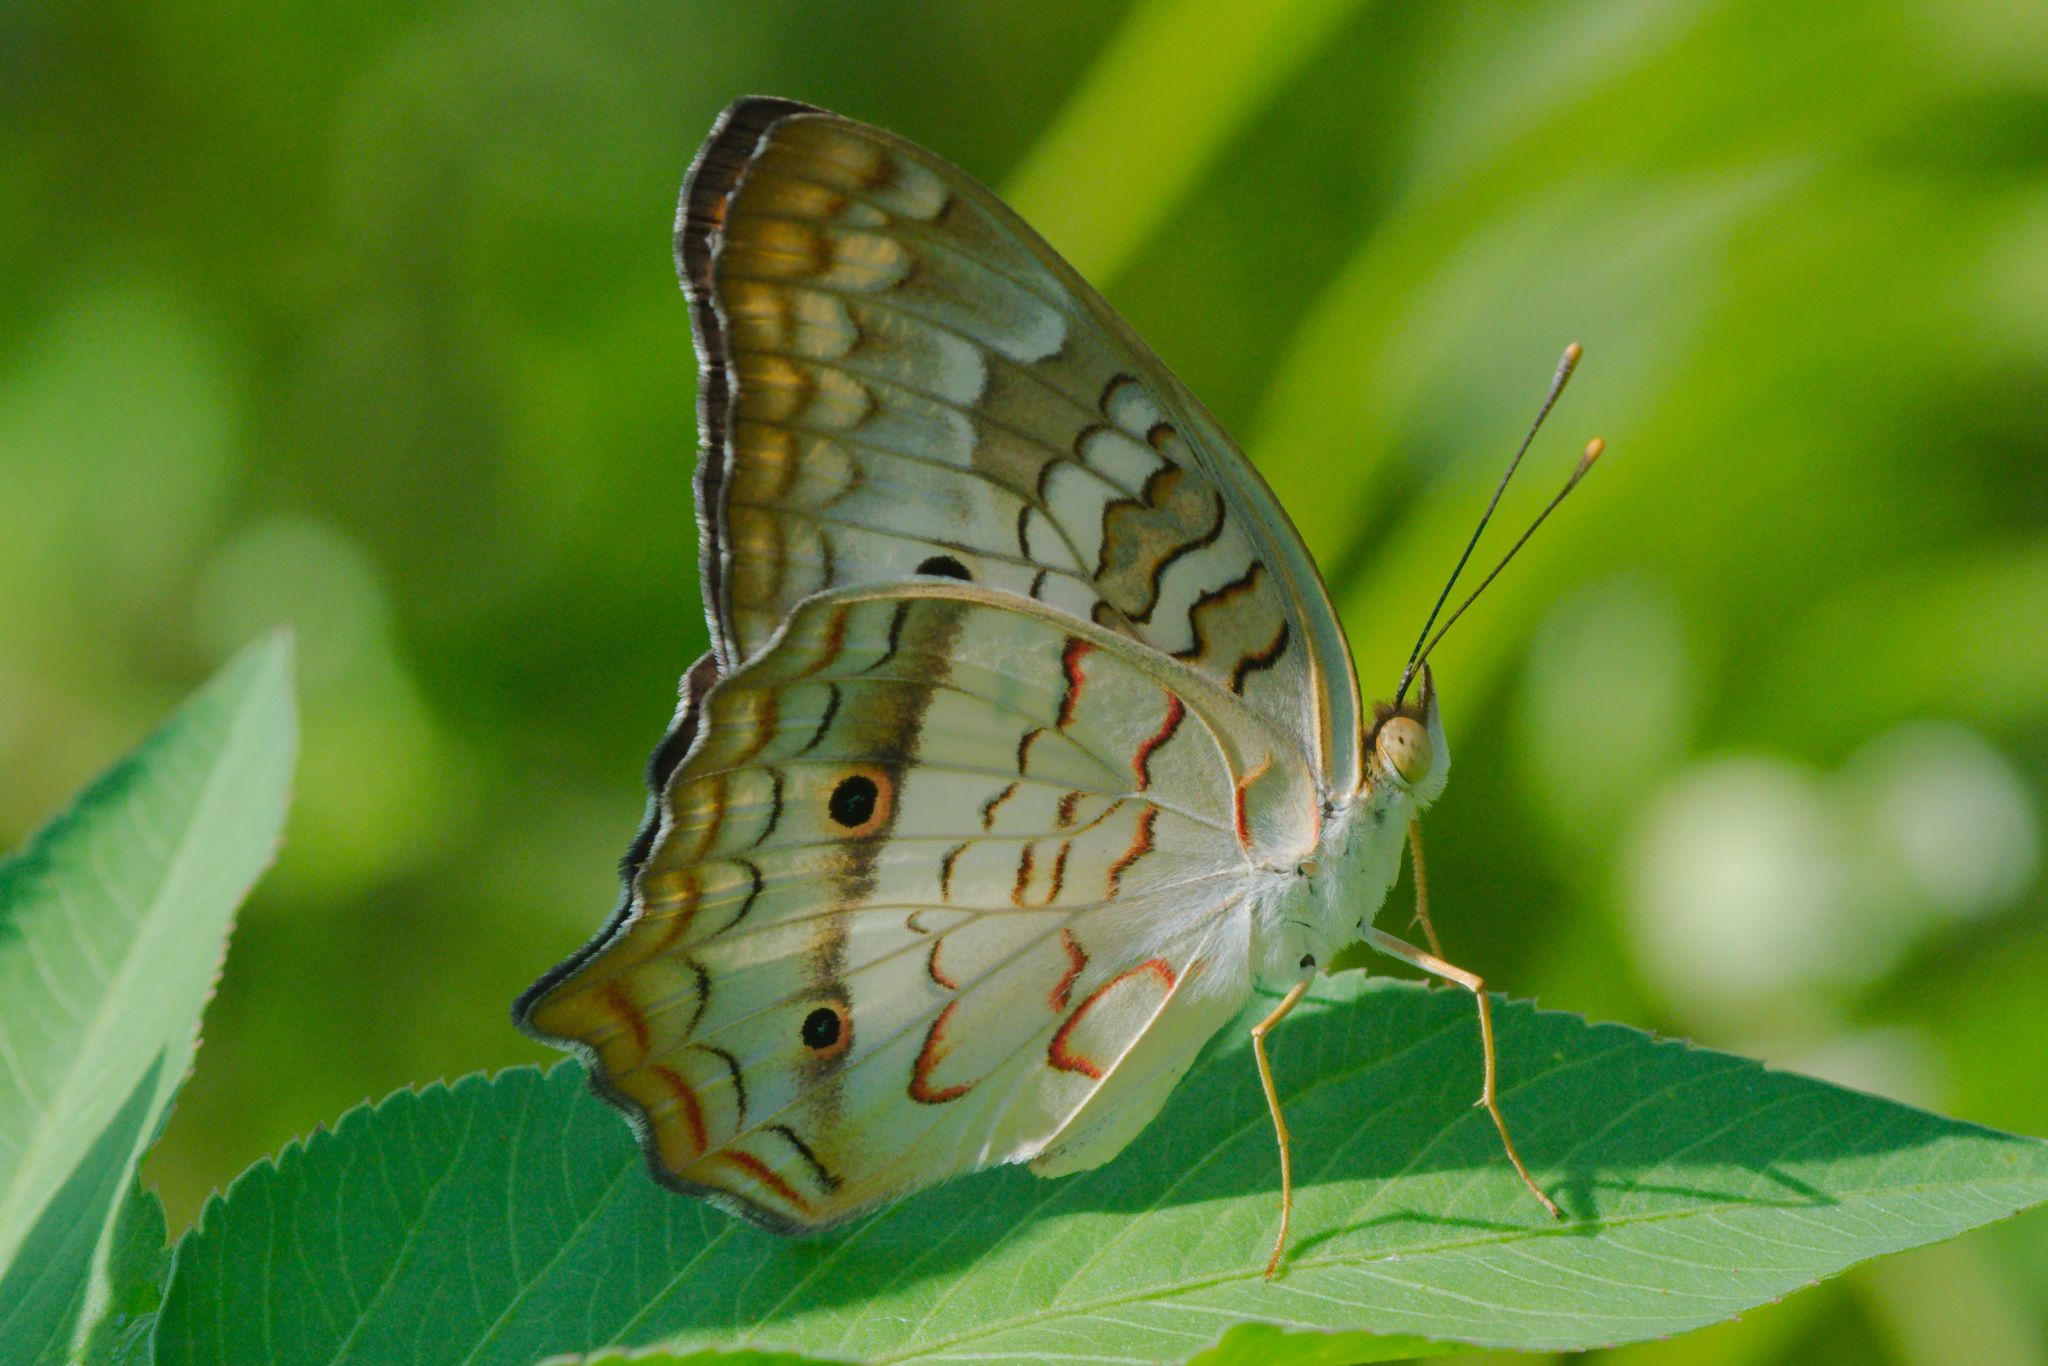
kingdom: Animalia
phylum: Arthropoda
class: Insecta
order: Lepidoptera
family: Nymphalidae
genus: Anartia
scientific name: Anartia jatrophae
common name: White peacock
